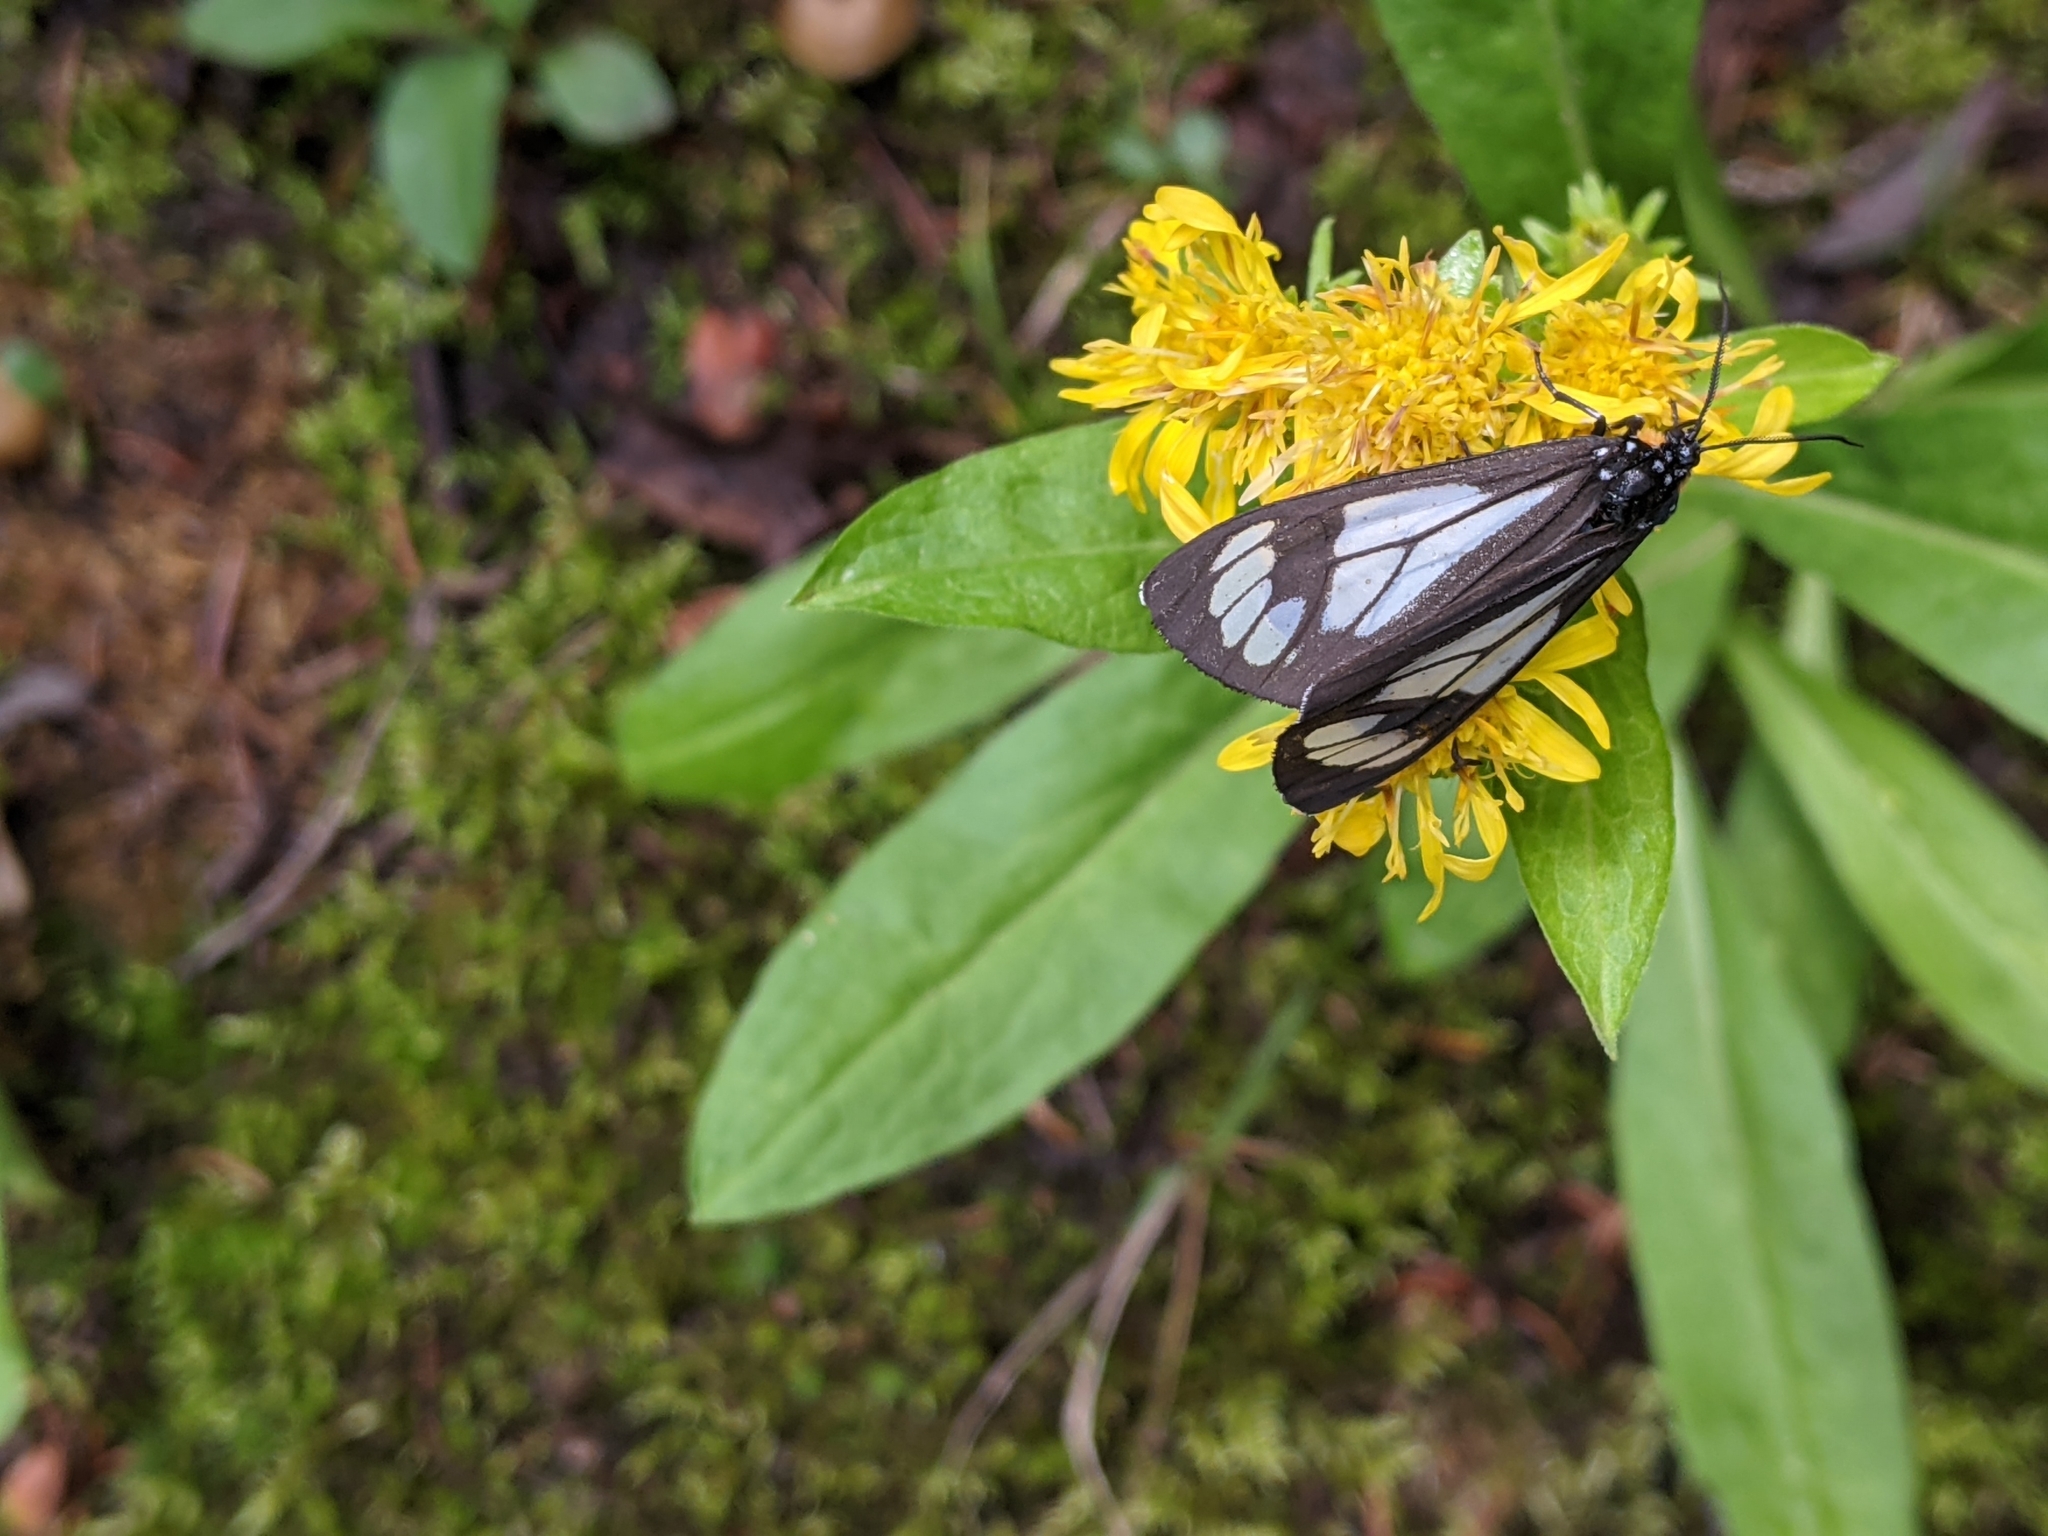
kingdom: Animalia
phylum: Arthropoda
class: Insecta
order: Lepidoptera
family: Erebidae
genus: Gnophaela
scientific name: Gnophaela vermiculata
